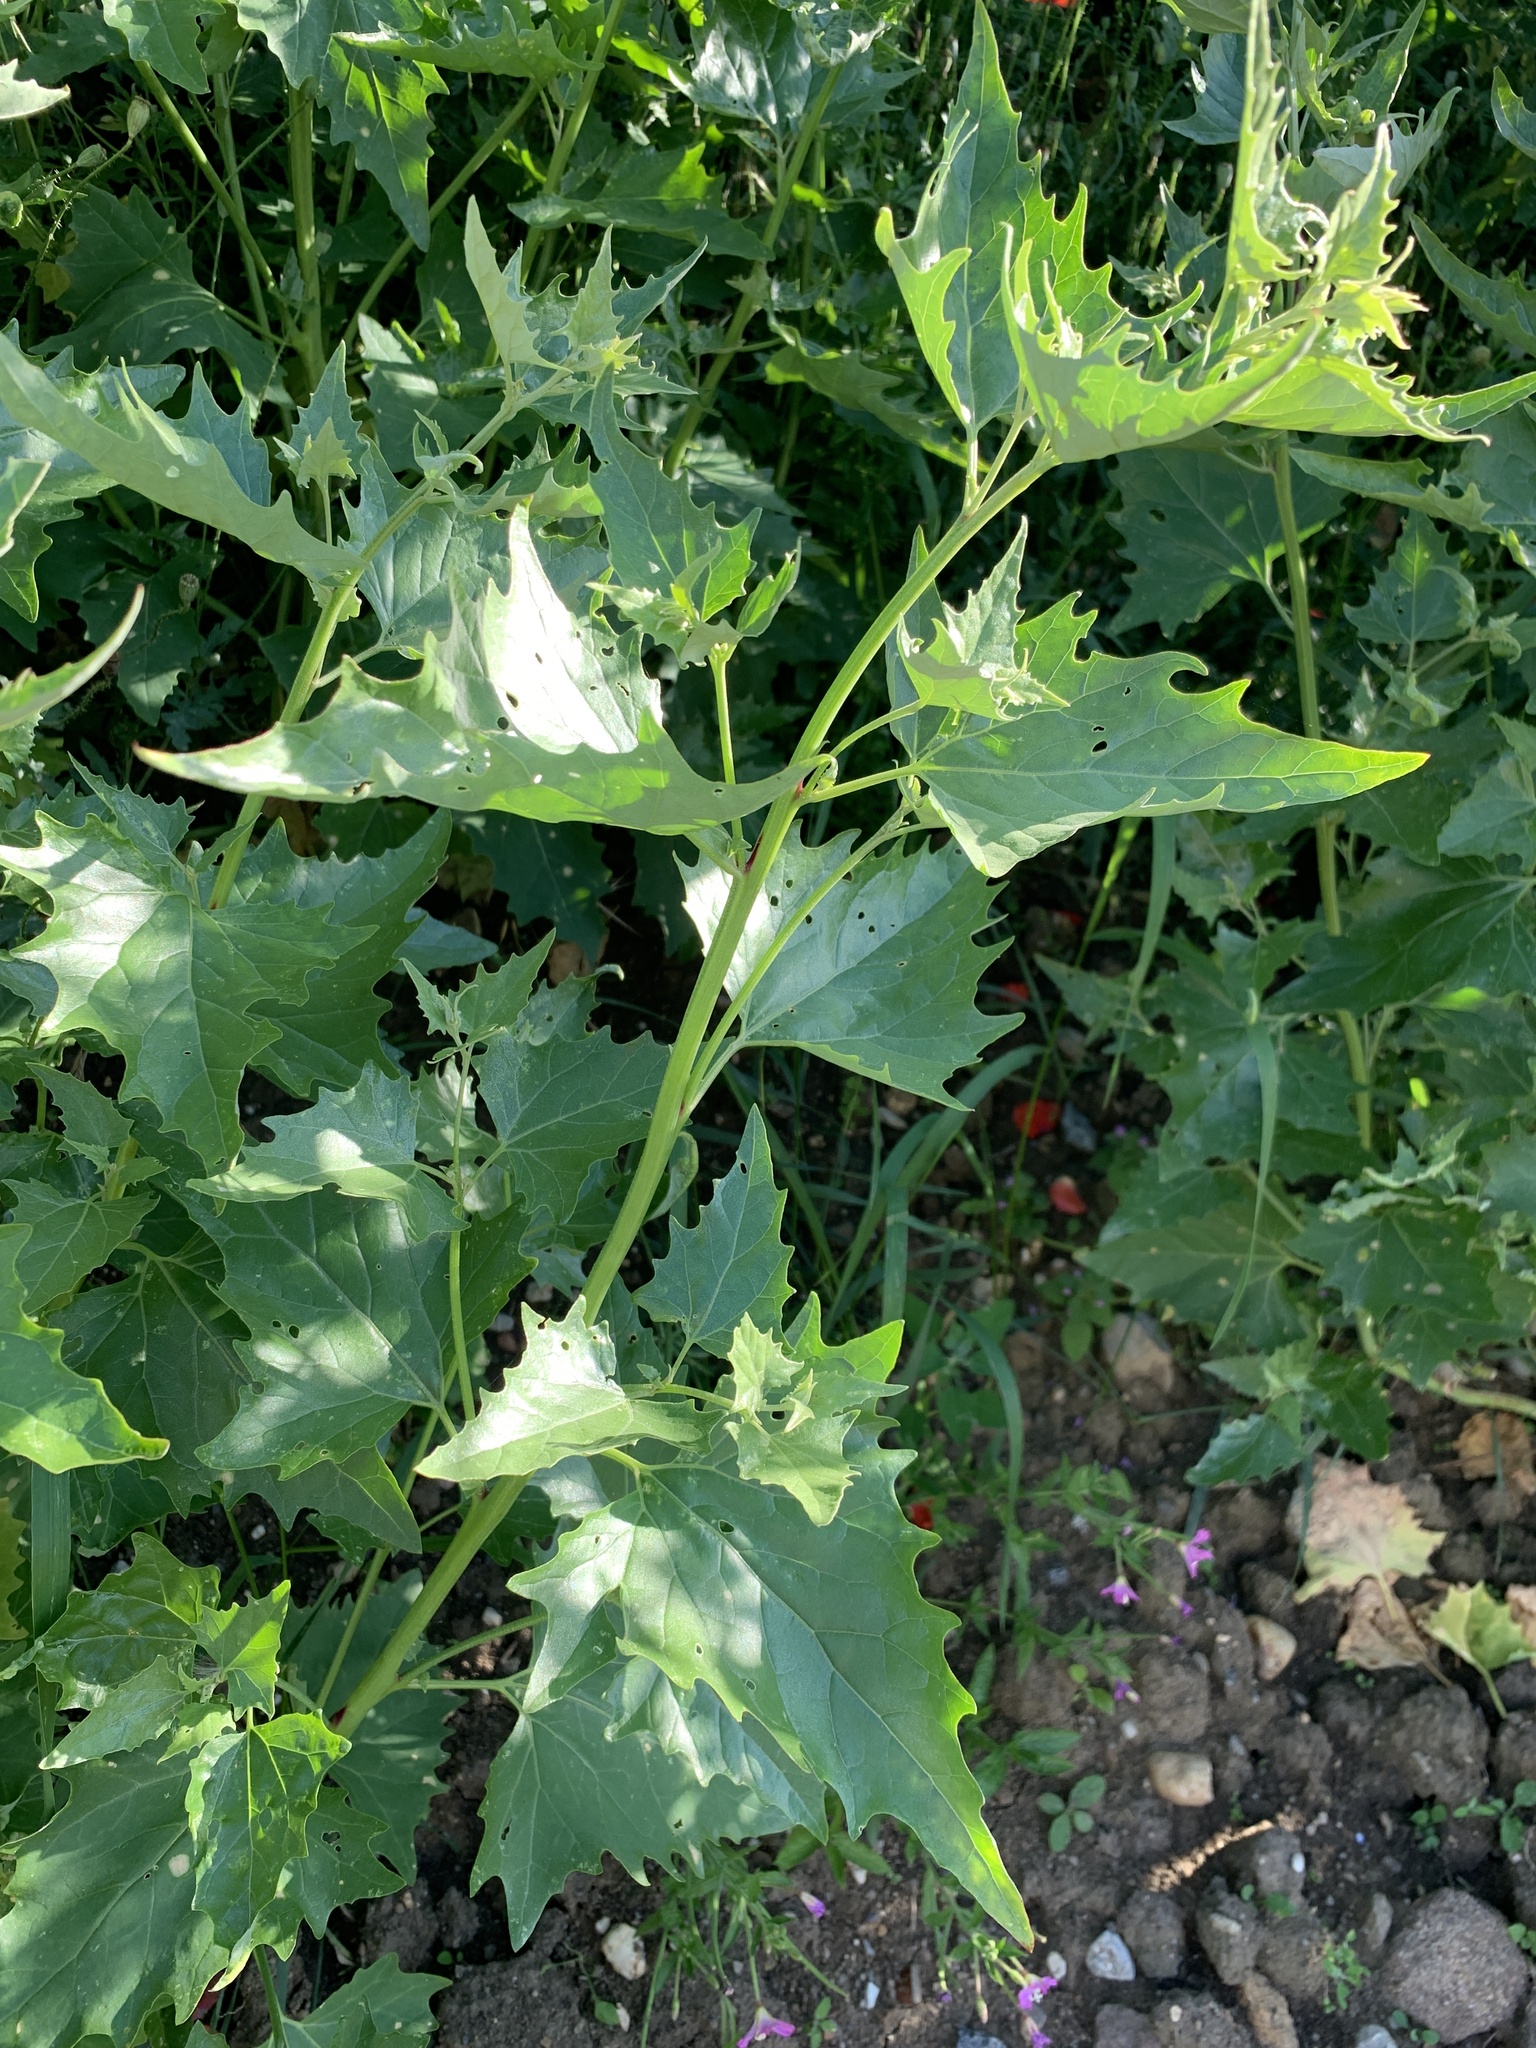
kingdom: Plantae
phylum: Tracheophyta
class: Magnoliopsida
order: Caryophyllales
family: Amaranthaceae
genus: Atriplex
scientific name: Atriplex sagittata
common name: Purple orache
